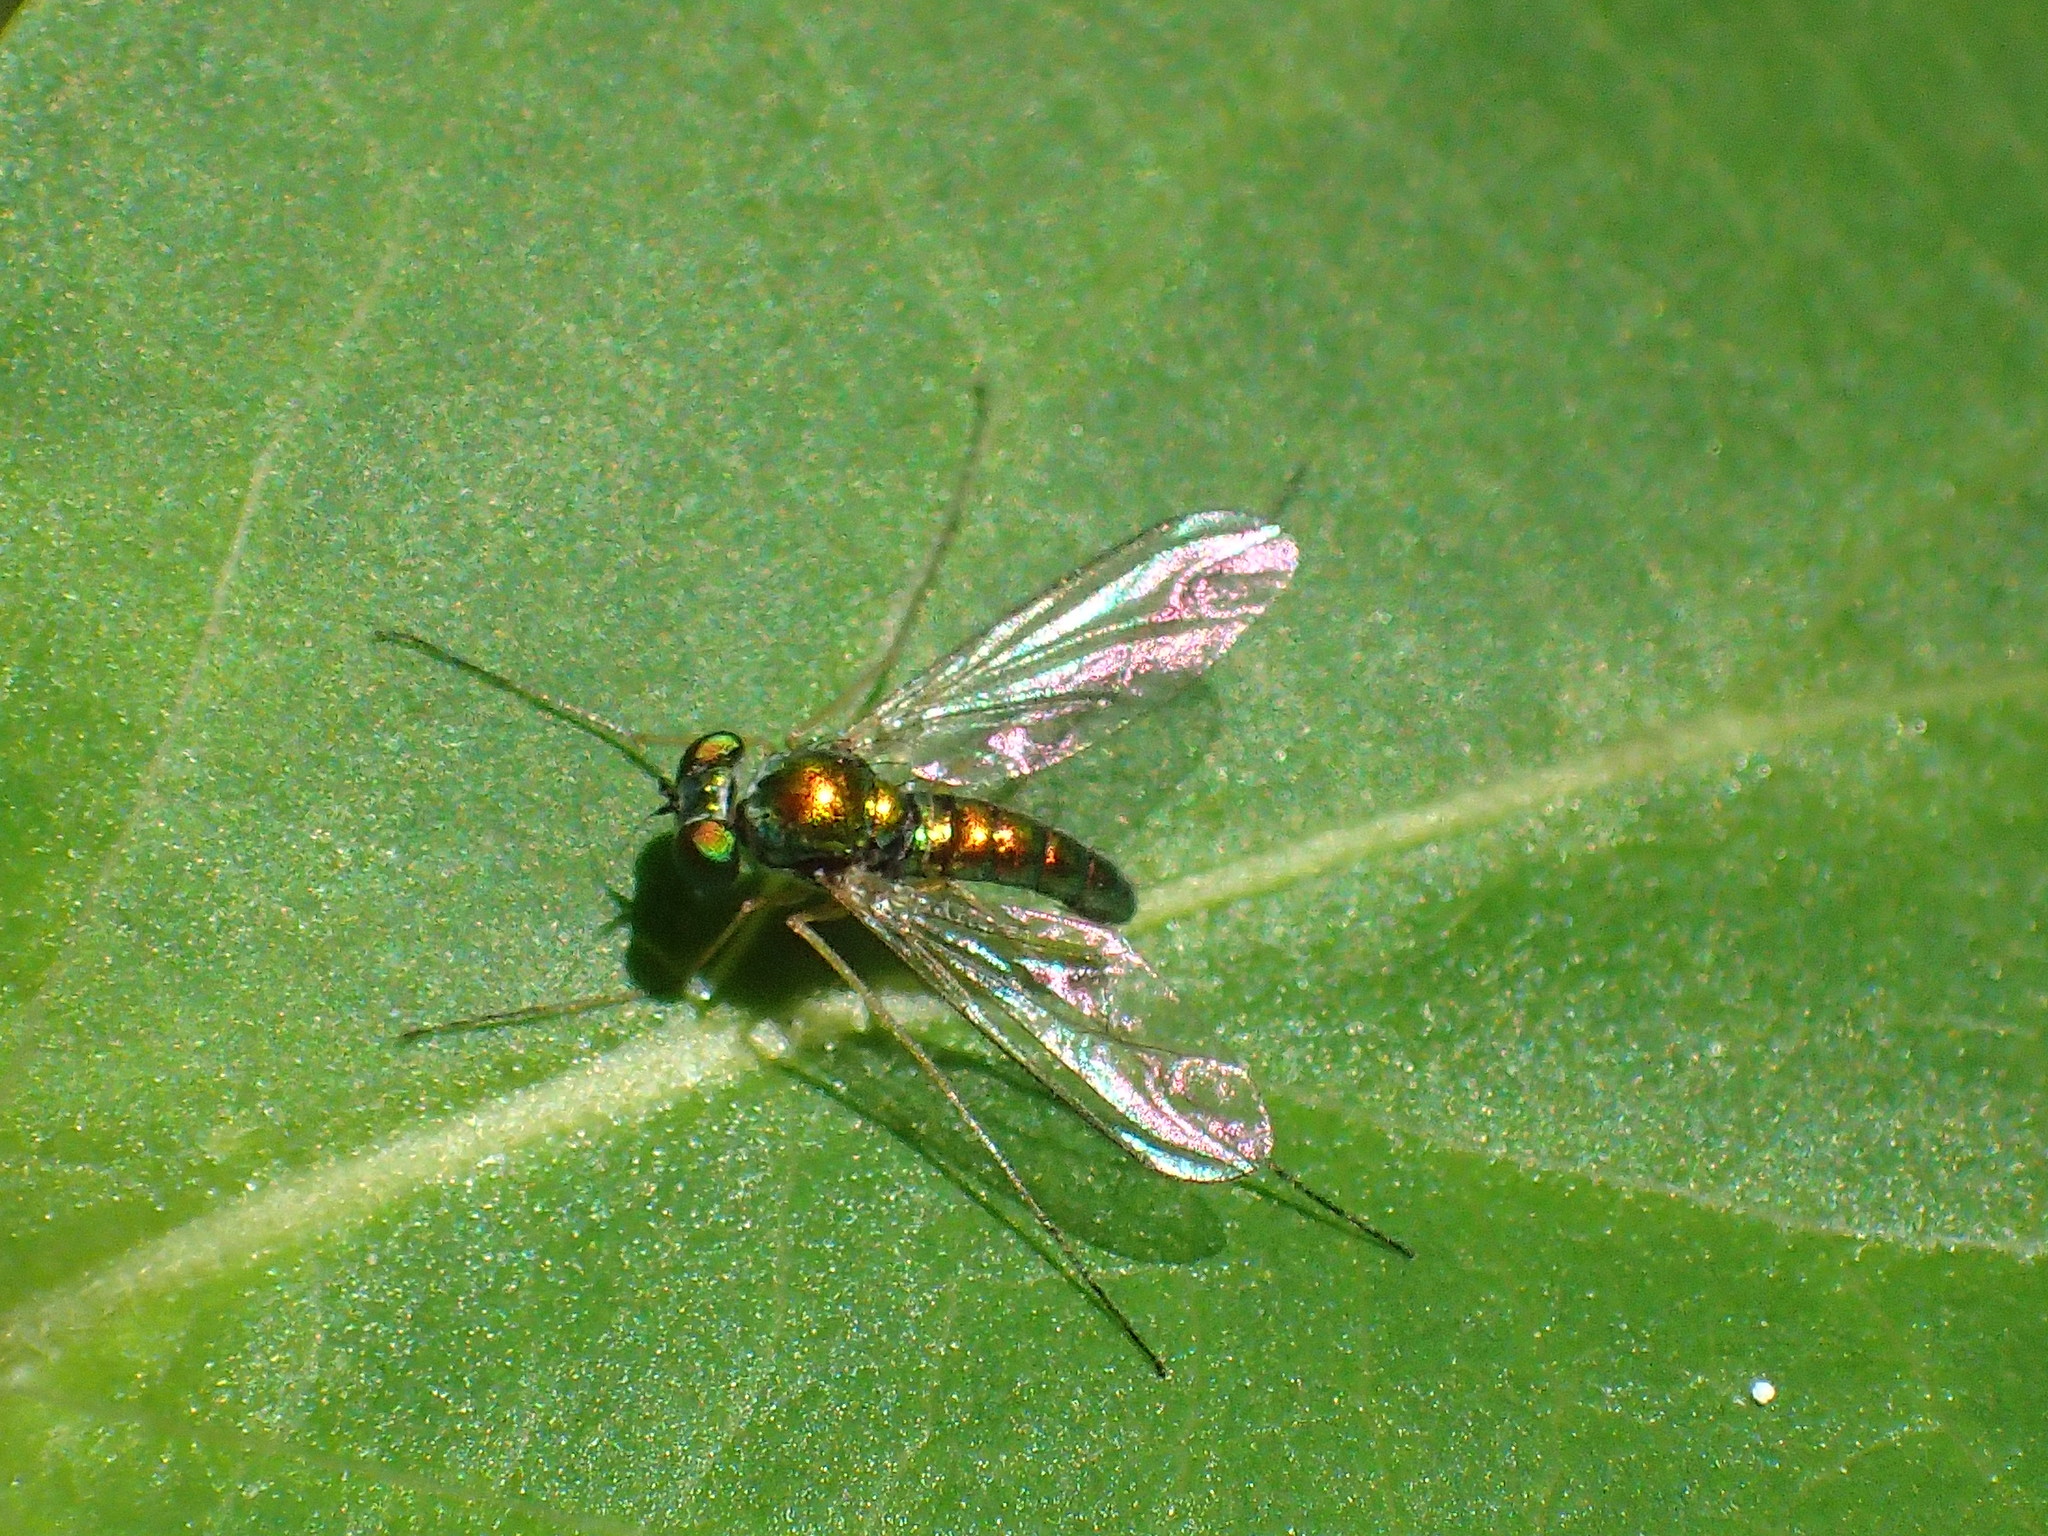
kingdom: Animalia
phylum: Arthropoda
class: Insecta
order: Diptera
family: Dolichopodidae
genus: Amblypsilopus
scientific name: Amblypsilopus scintillans
